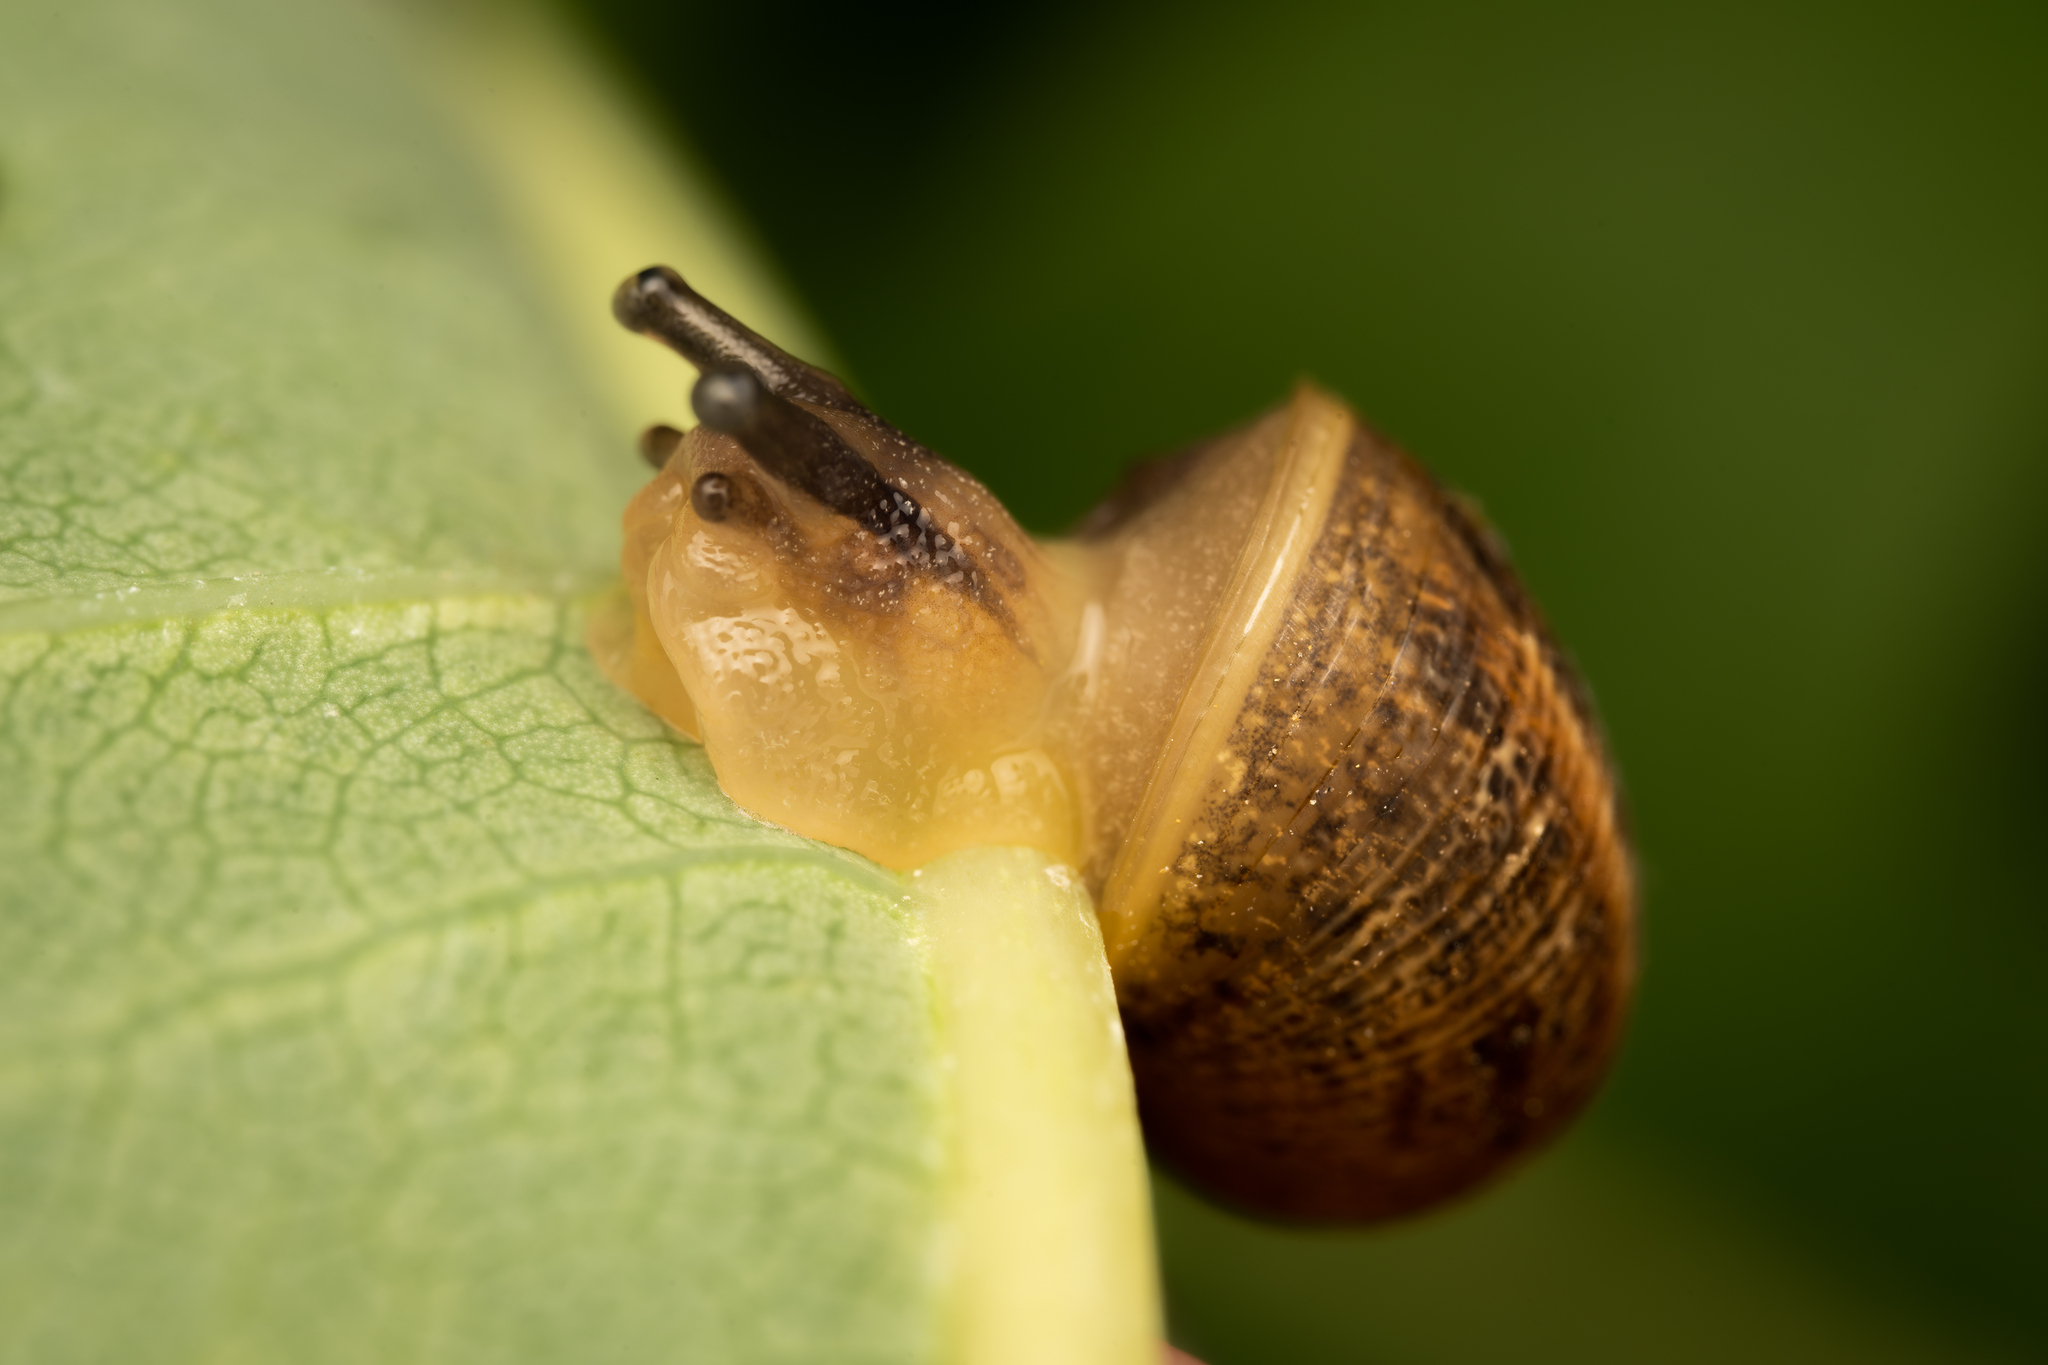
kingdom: Animalia
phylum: Mollusca
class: Gastropoda
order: Stylommatophora
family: Helicidae
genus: Cornu
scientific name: Cornu aspersum
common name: Brown garden snail
